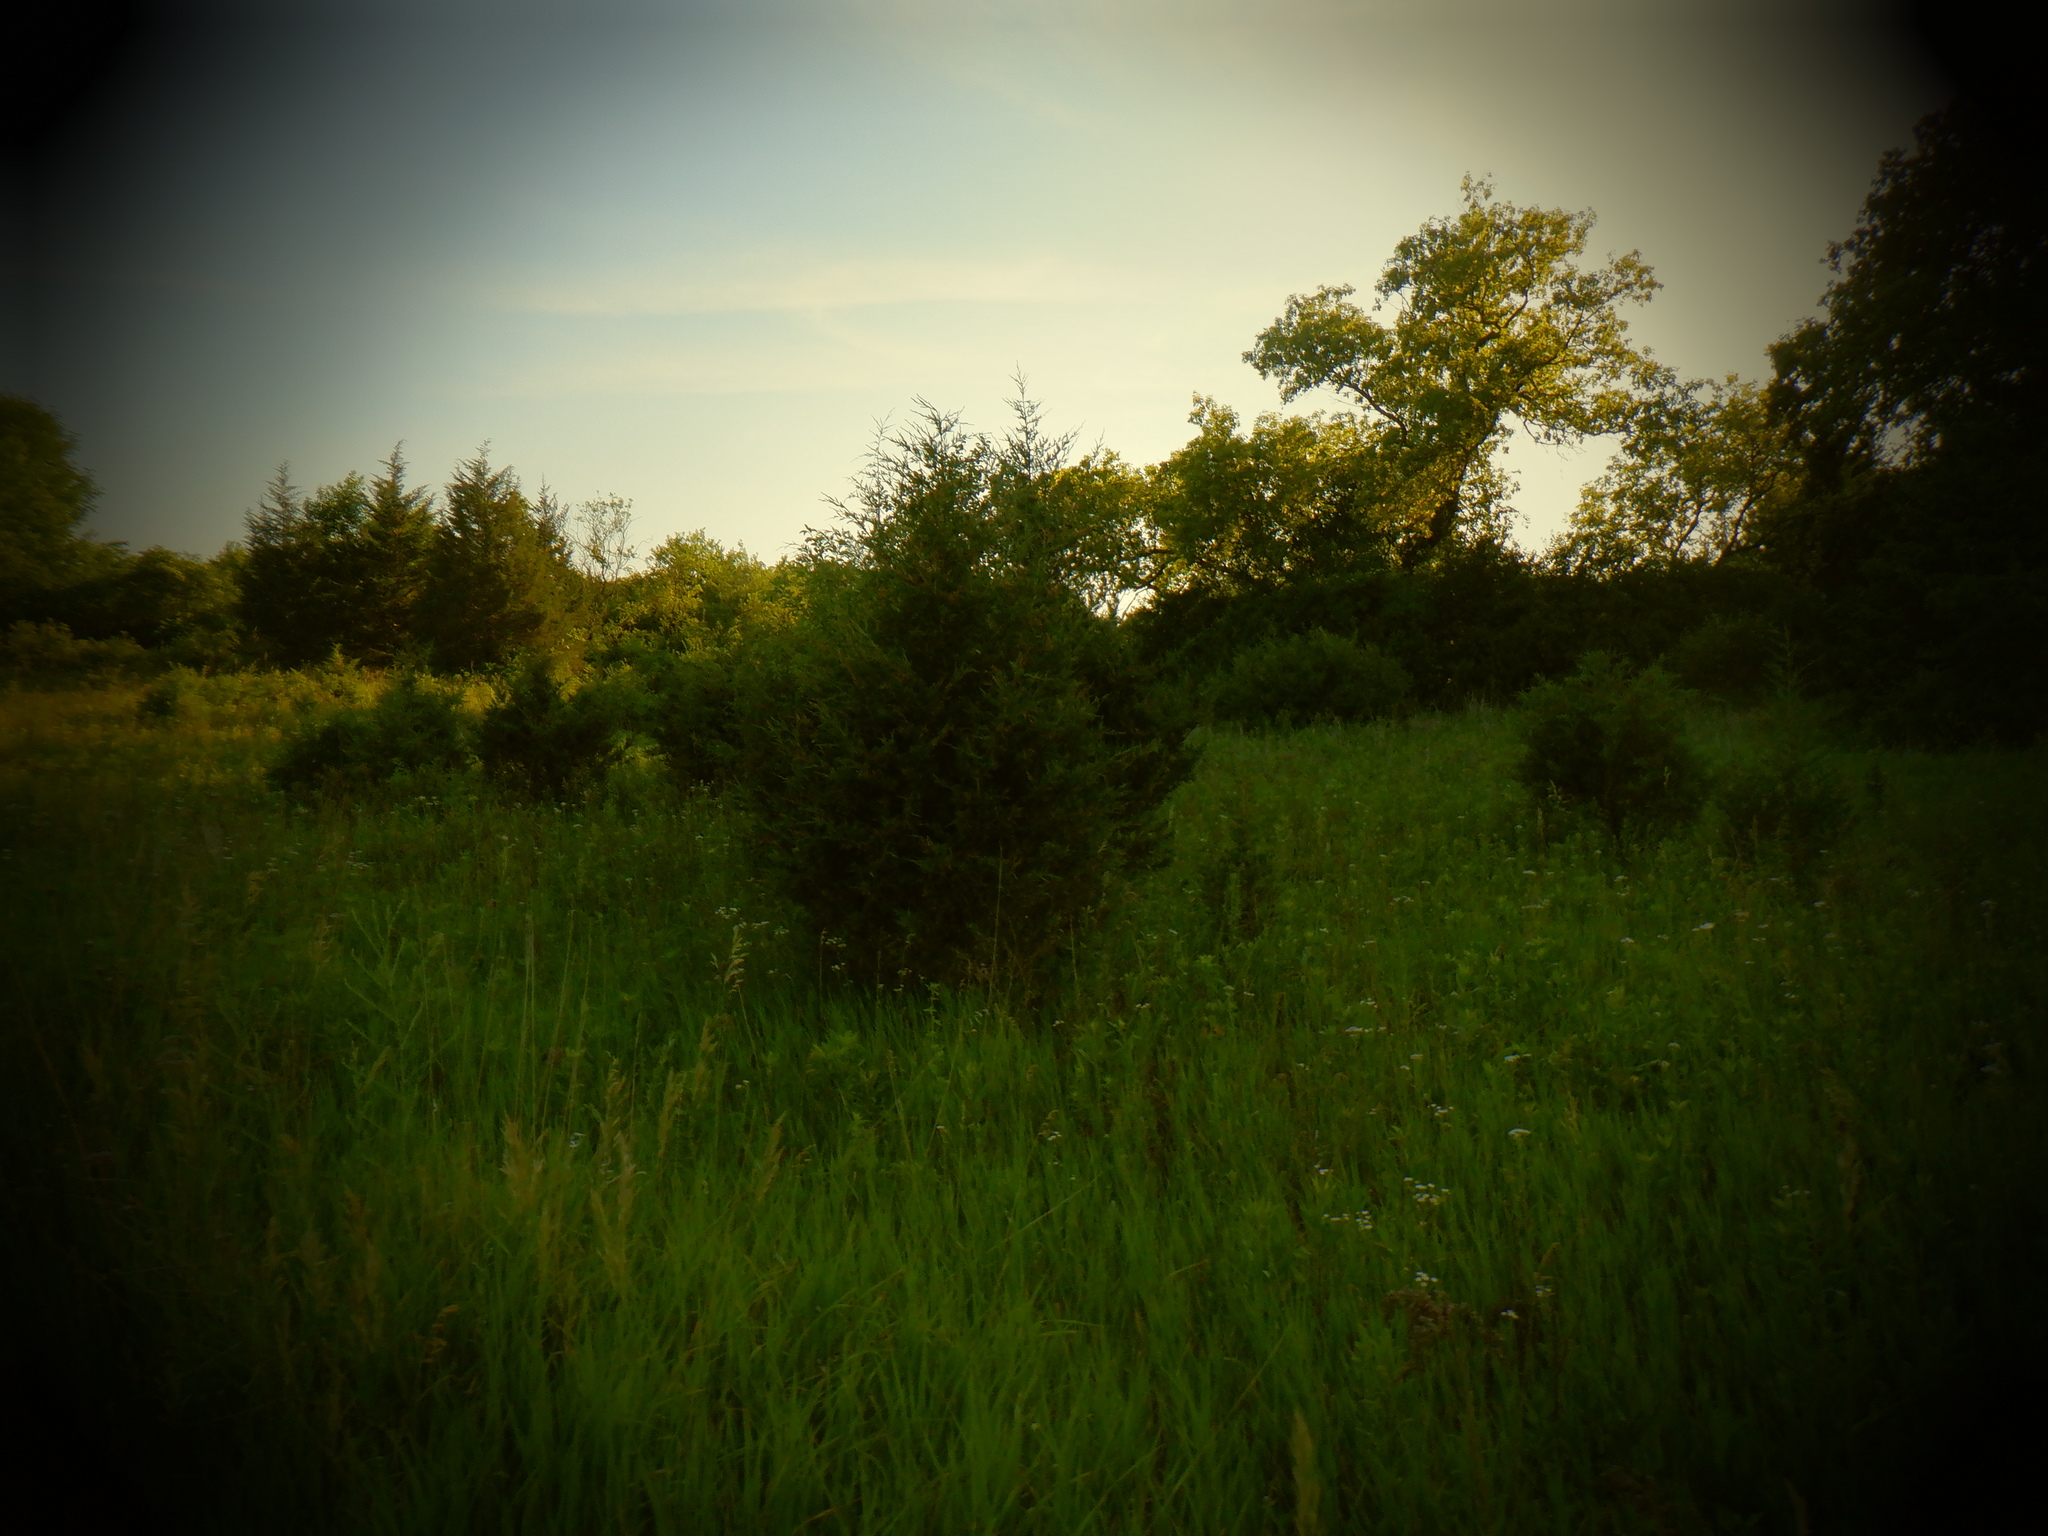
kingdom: Plantae
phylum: Tracheophyta
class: Pinopsida
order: Pinales
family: Cupressaceae
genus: Juniperus
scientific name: Juniperus virginiana
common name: Red juniper
